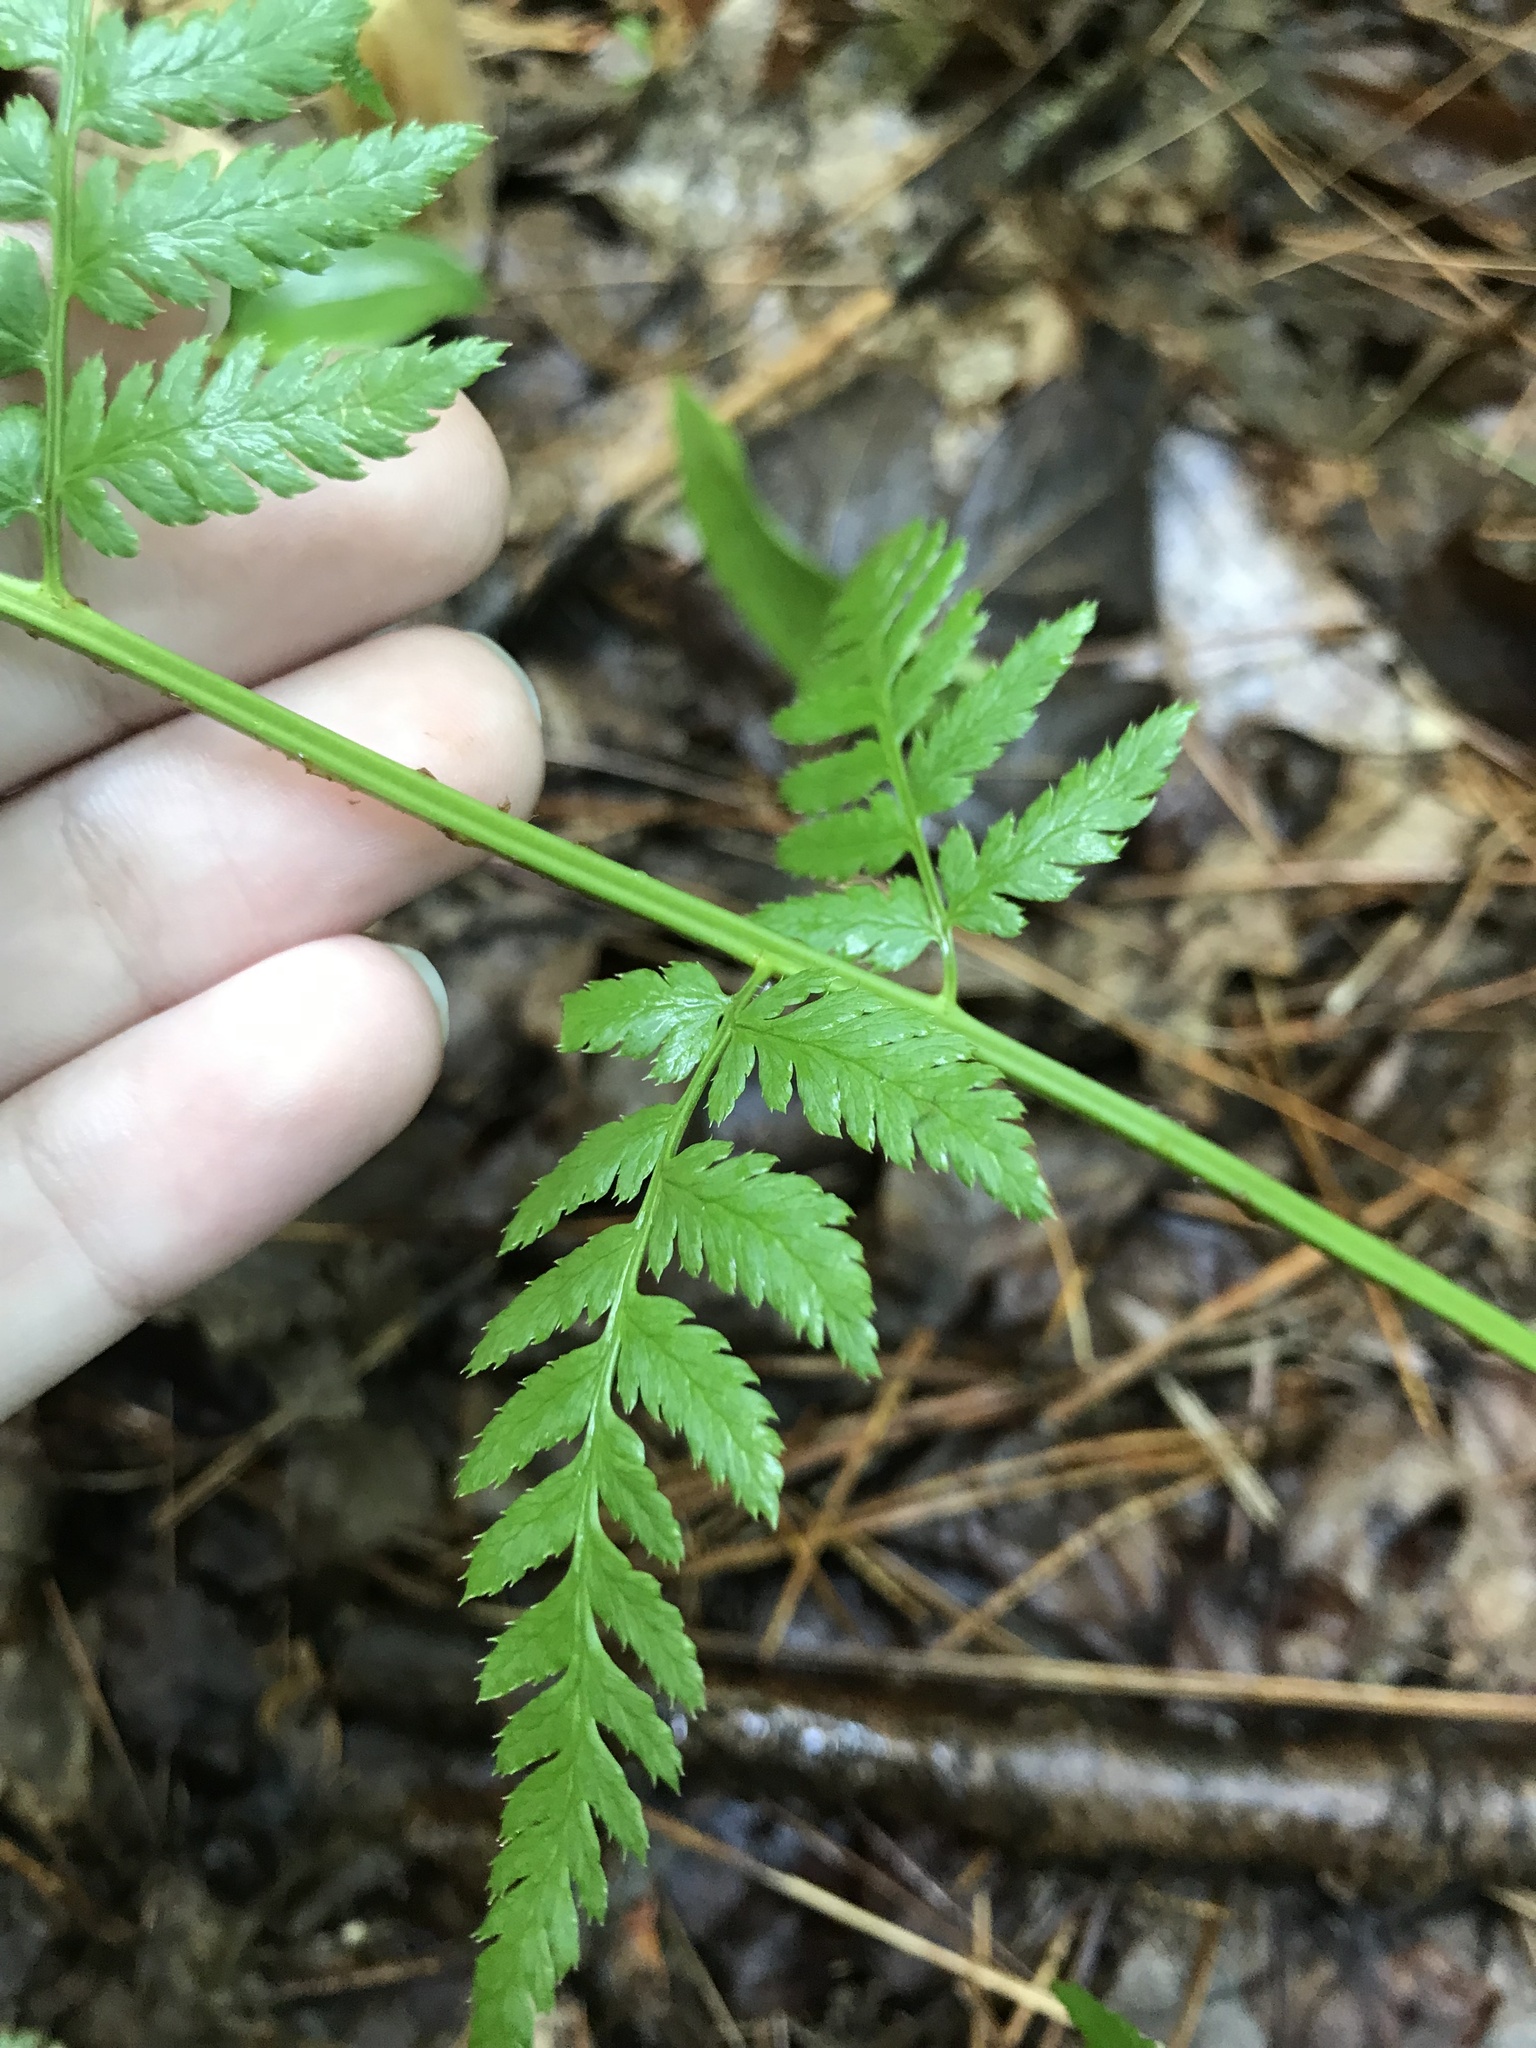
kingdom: Plantae
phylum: Tracheophyta
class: Polypodiopsida
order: Polypodiales
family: Dryopteridaceae
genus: Dryopteris
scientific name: Dryopteris carthusiana
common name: Narrow buckler-fern
